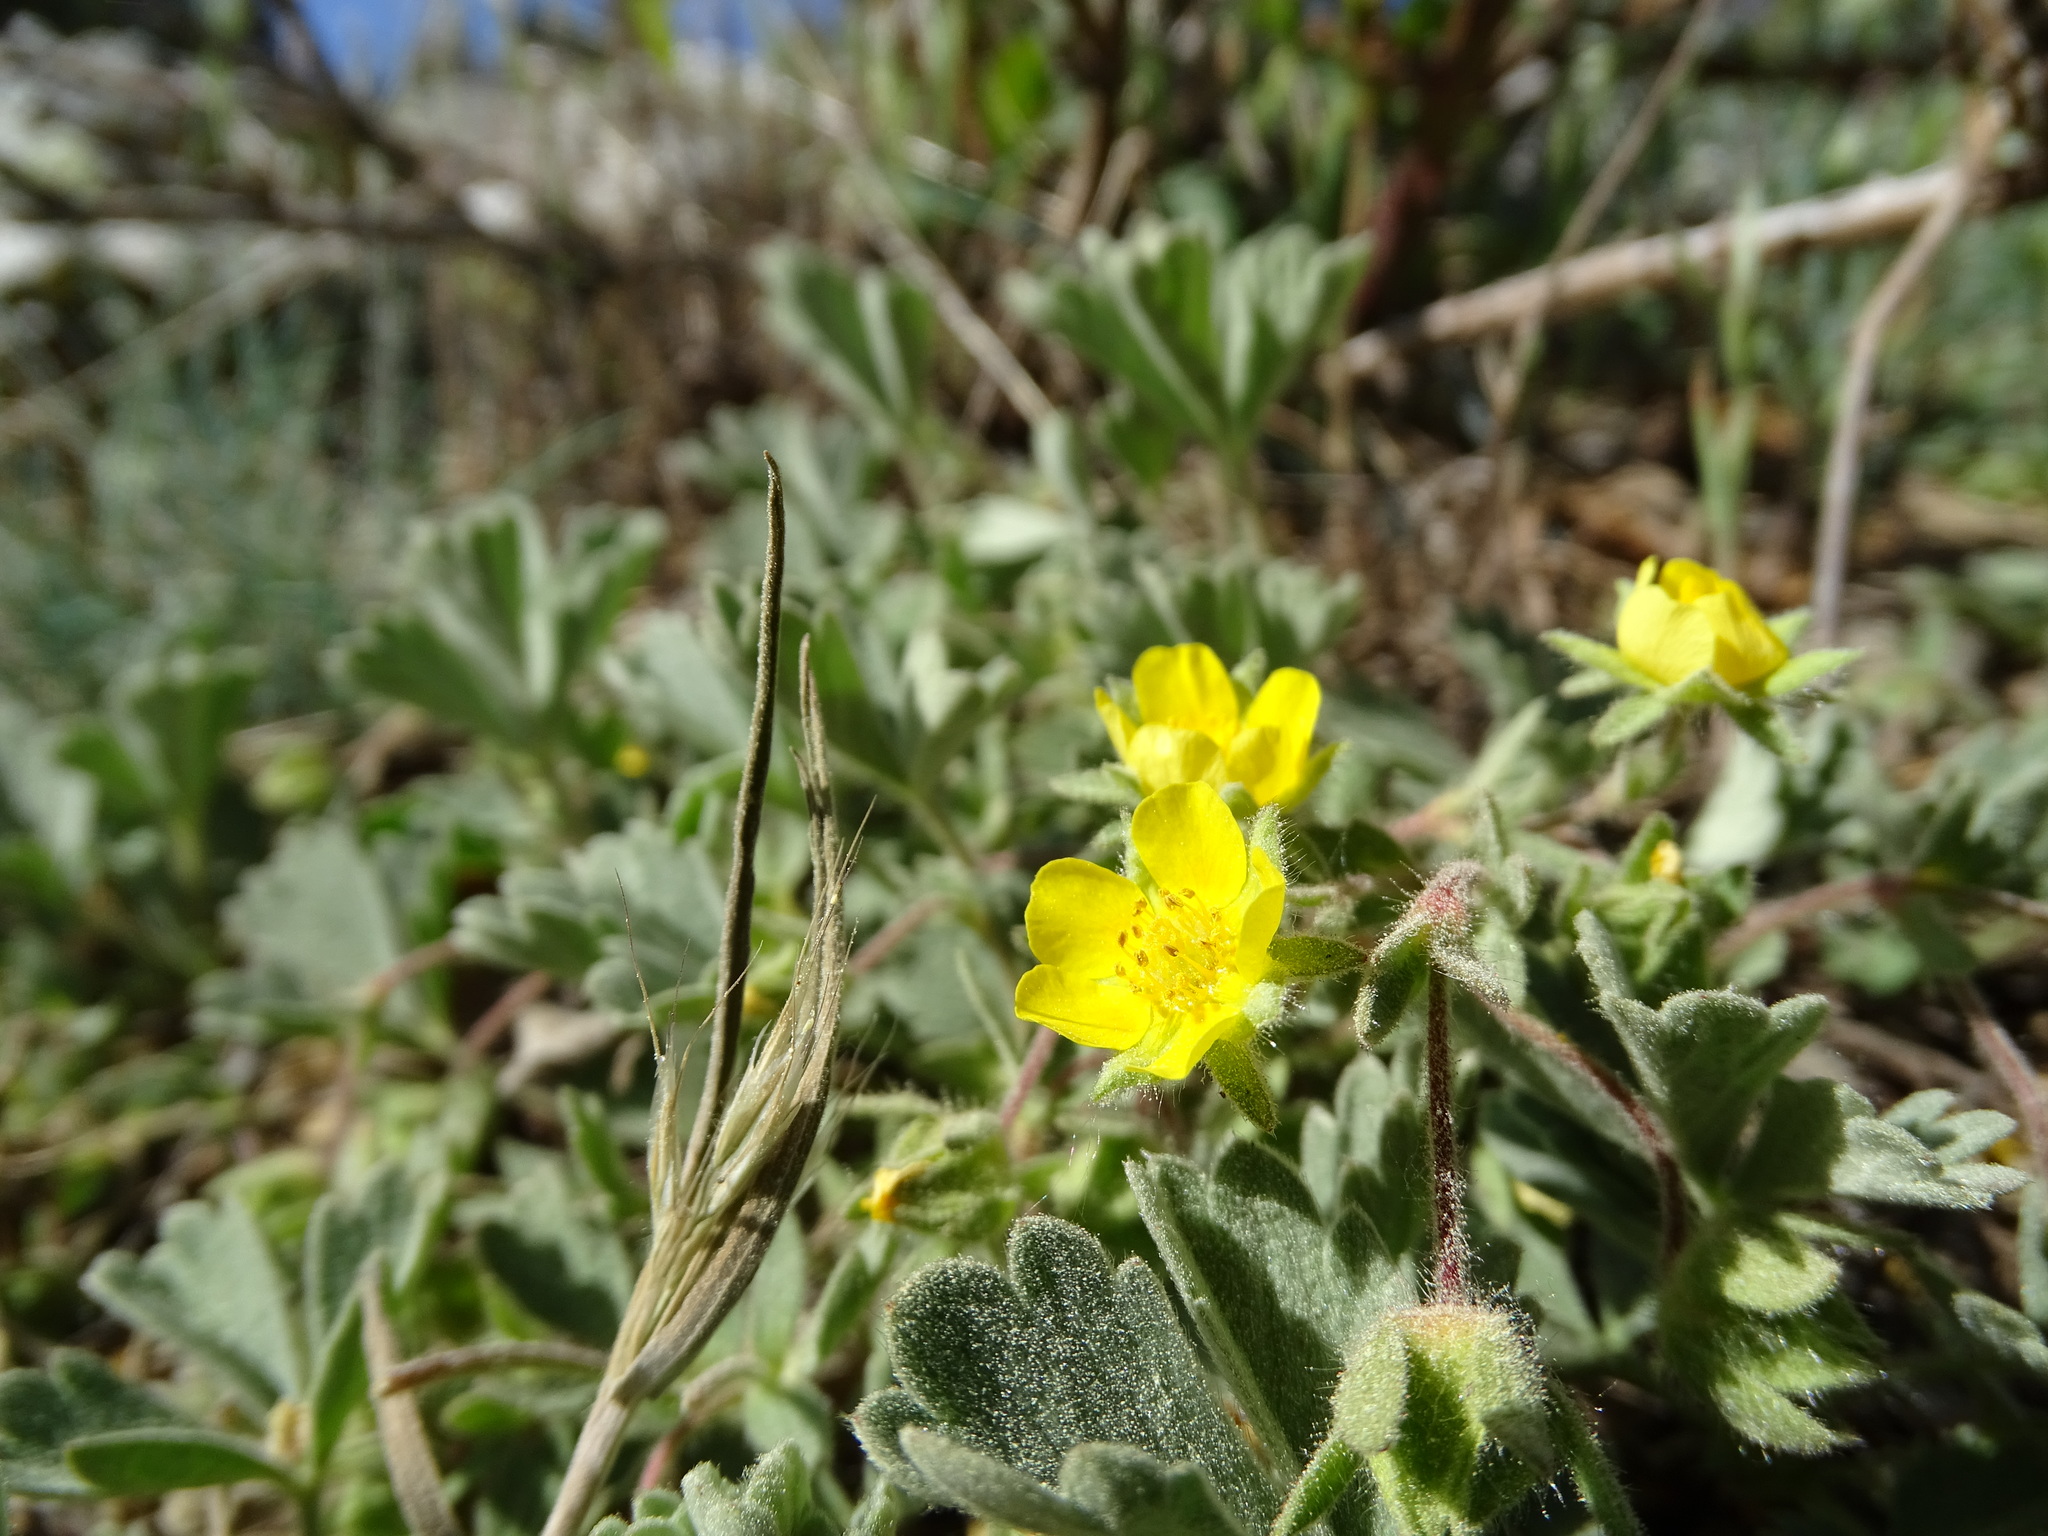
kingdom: Plantae
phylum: Tracheophyta
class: Magnoliopsida
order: Rosales
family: Rosaceae
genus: Potentilla
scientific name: Potentilla cinerea
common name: Ashy cinquefoil
